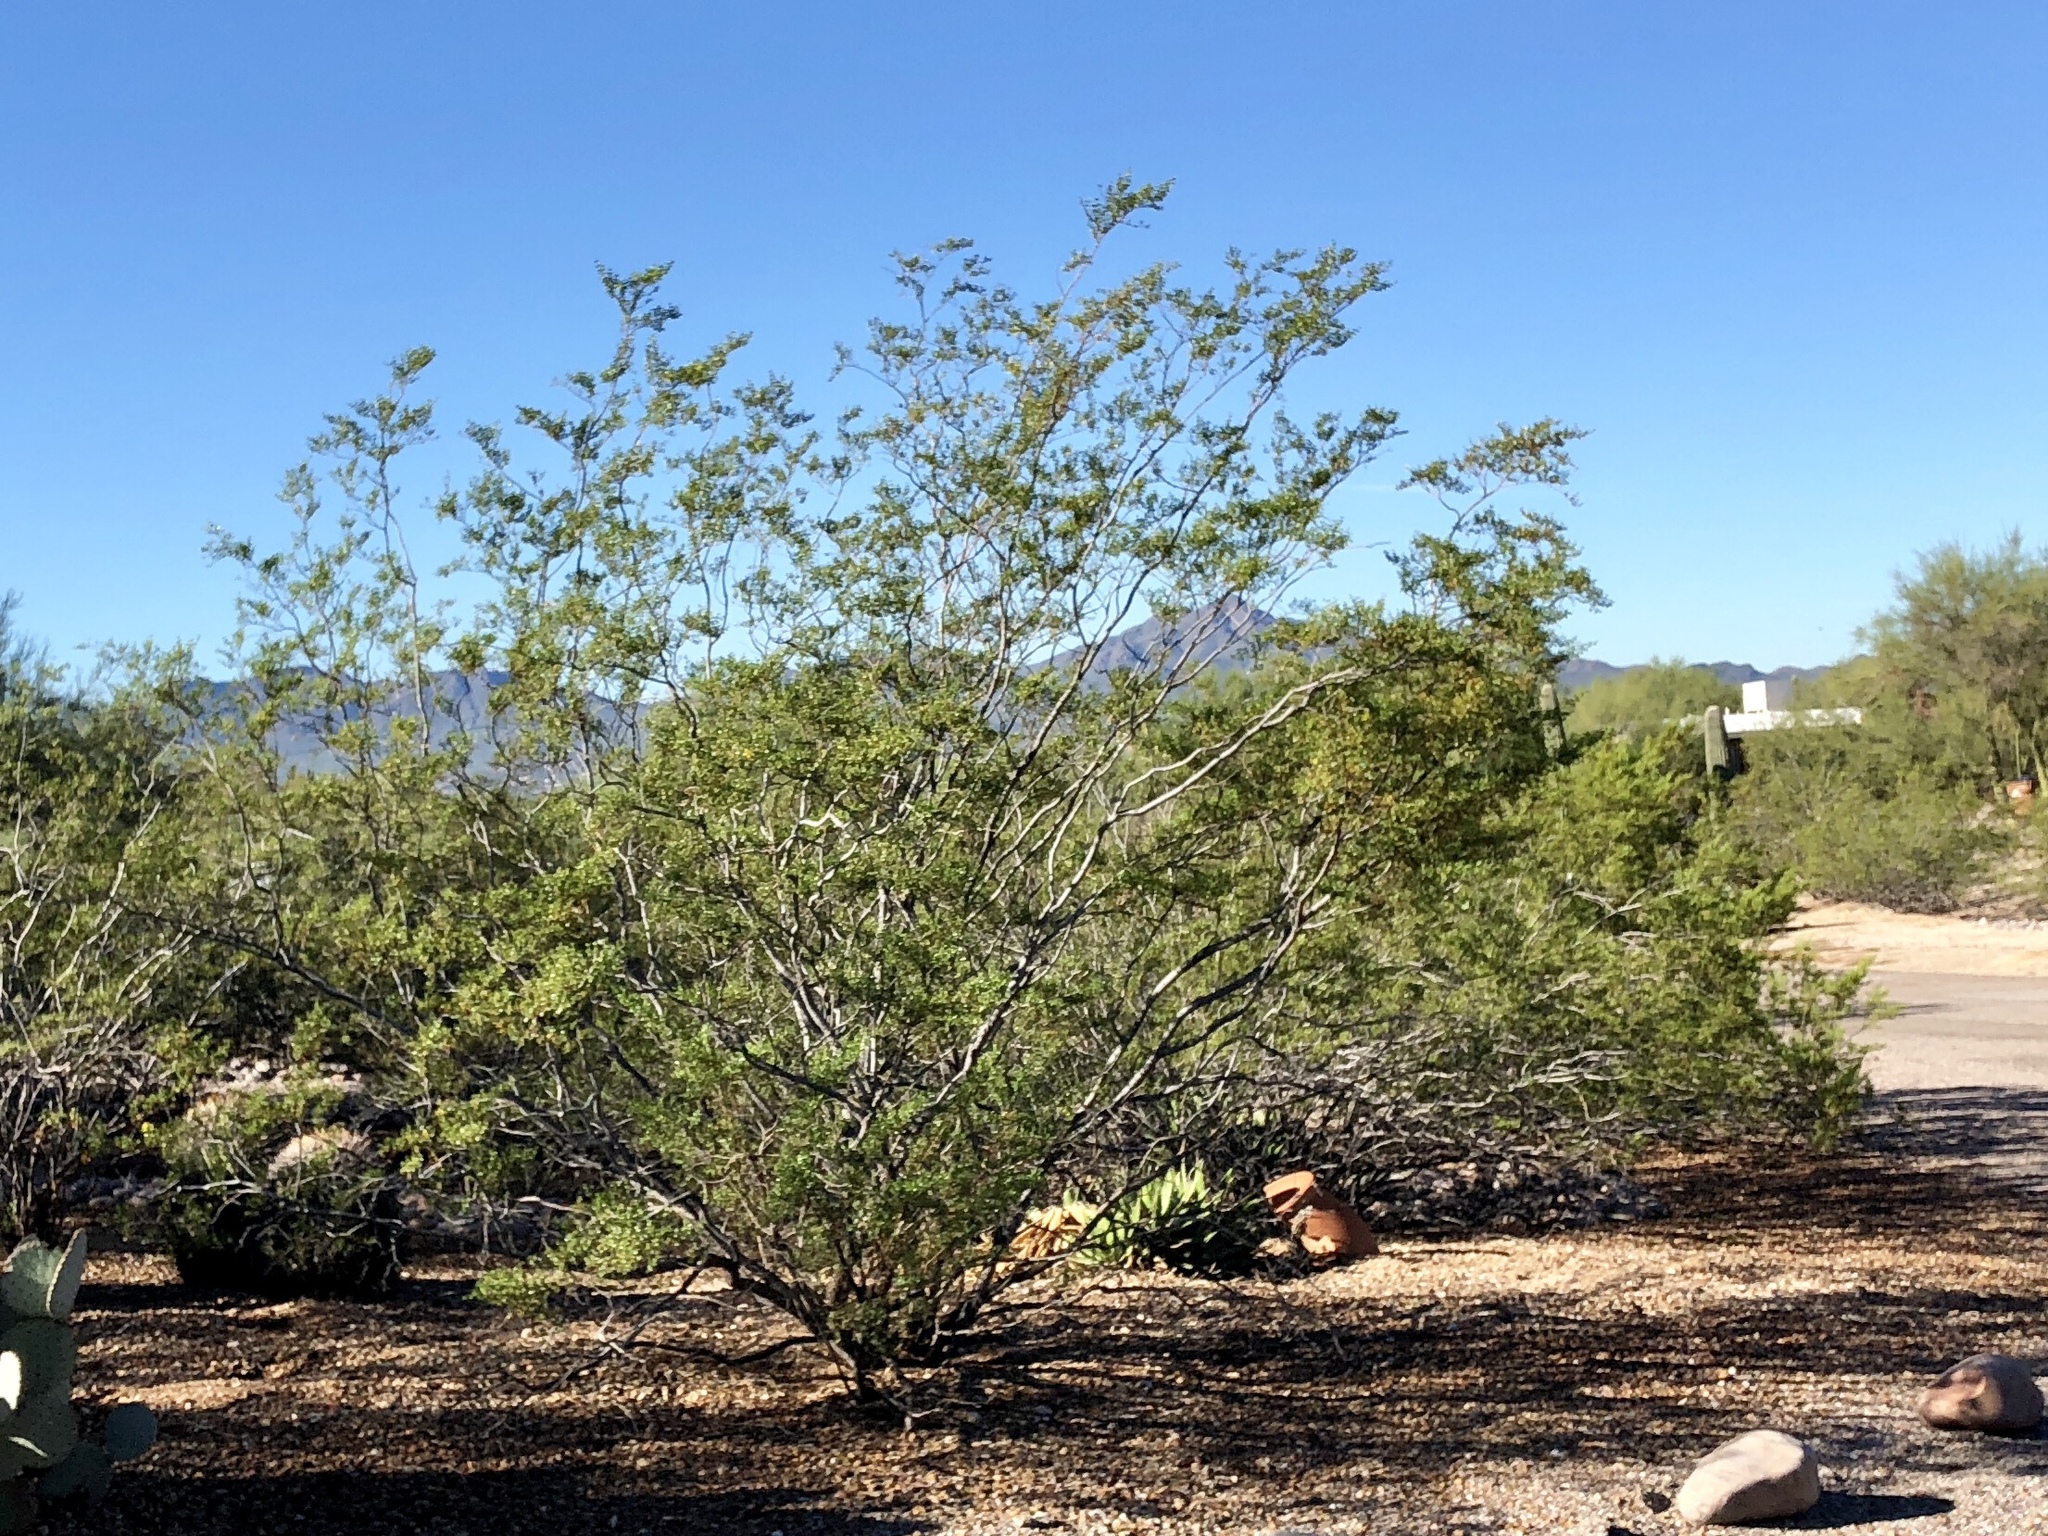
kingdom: Plantae
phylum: Tracheophyta
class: Magnoliopsida
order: Zygophyllales
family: Zygophyllaceae
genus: Larrea
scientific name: Larrea tridentata
